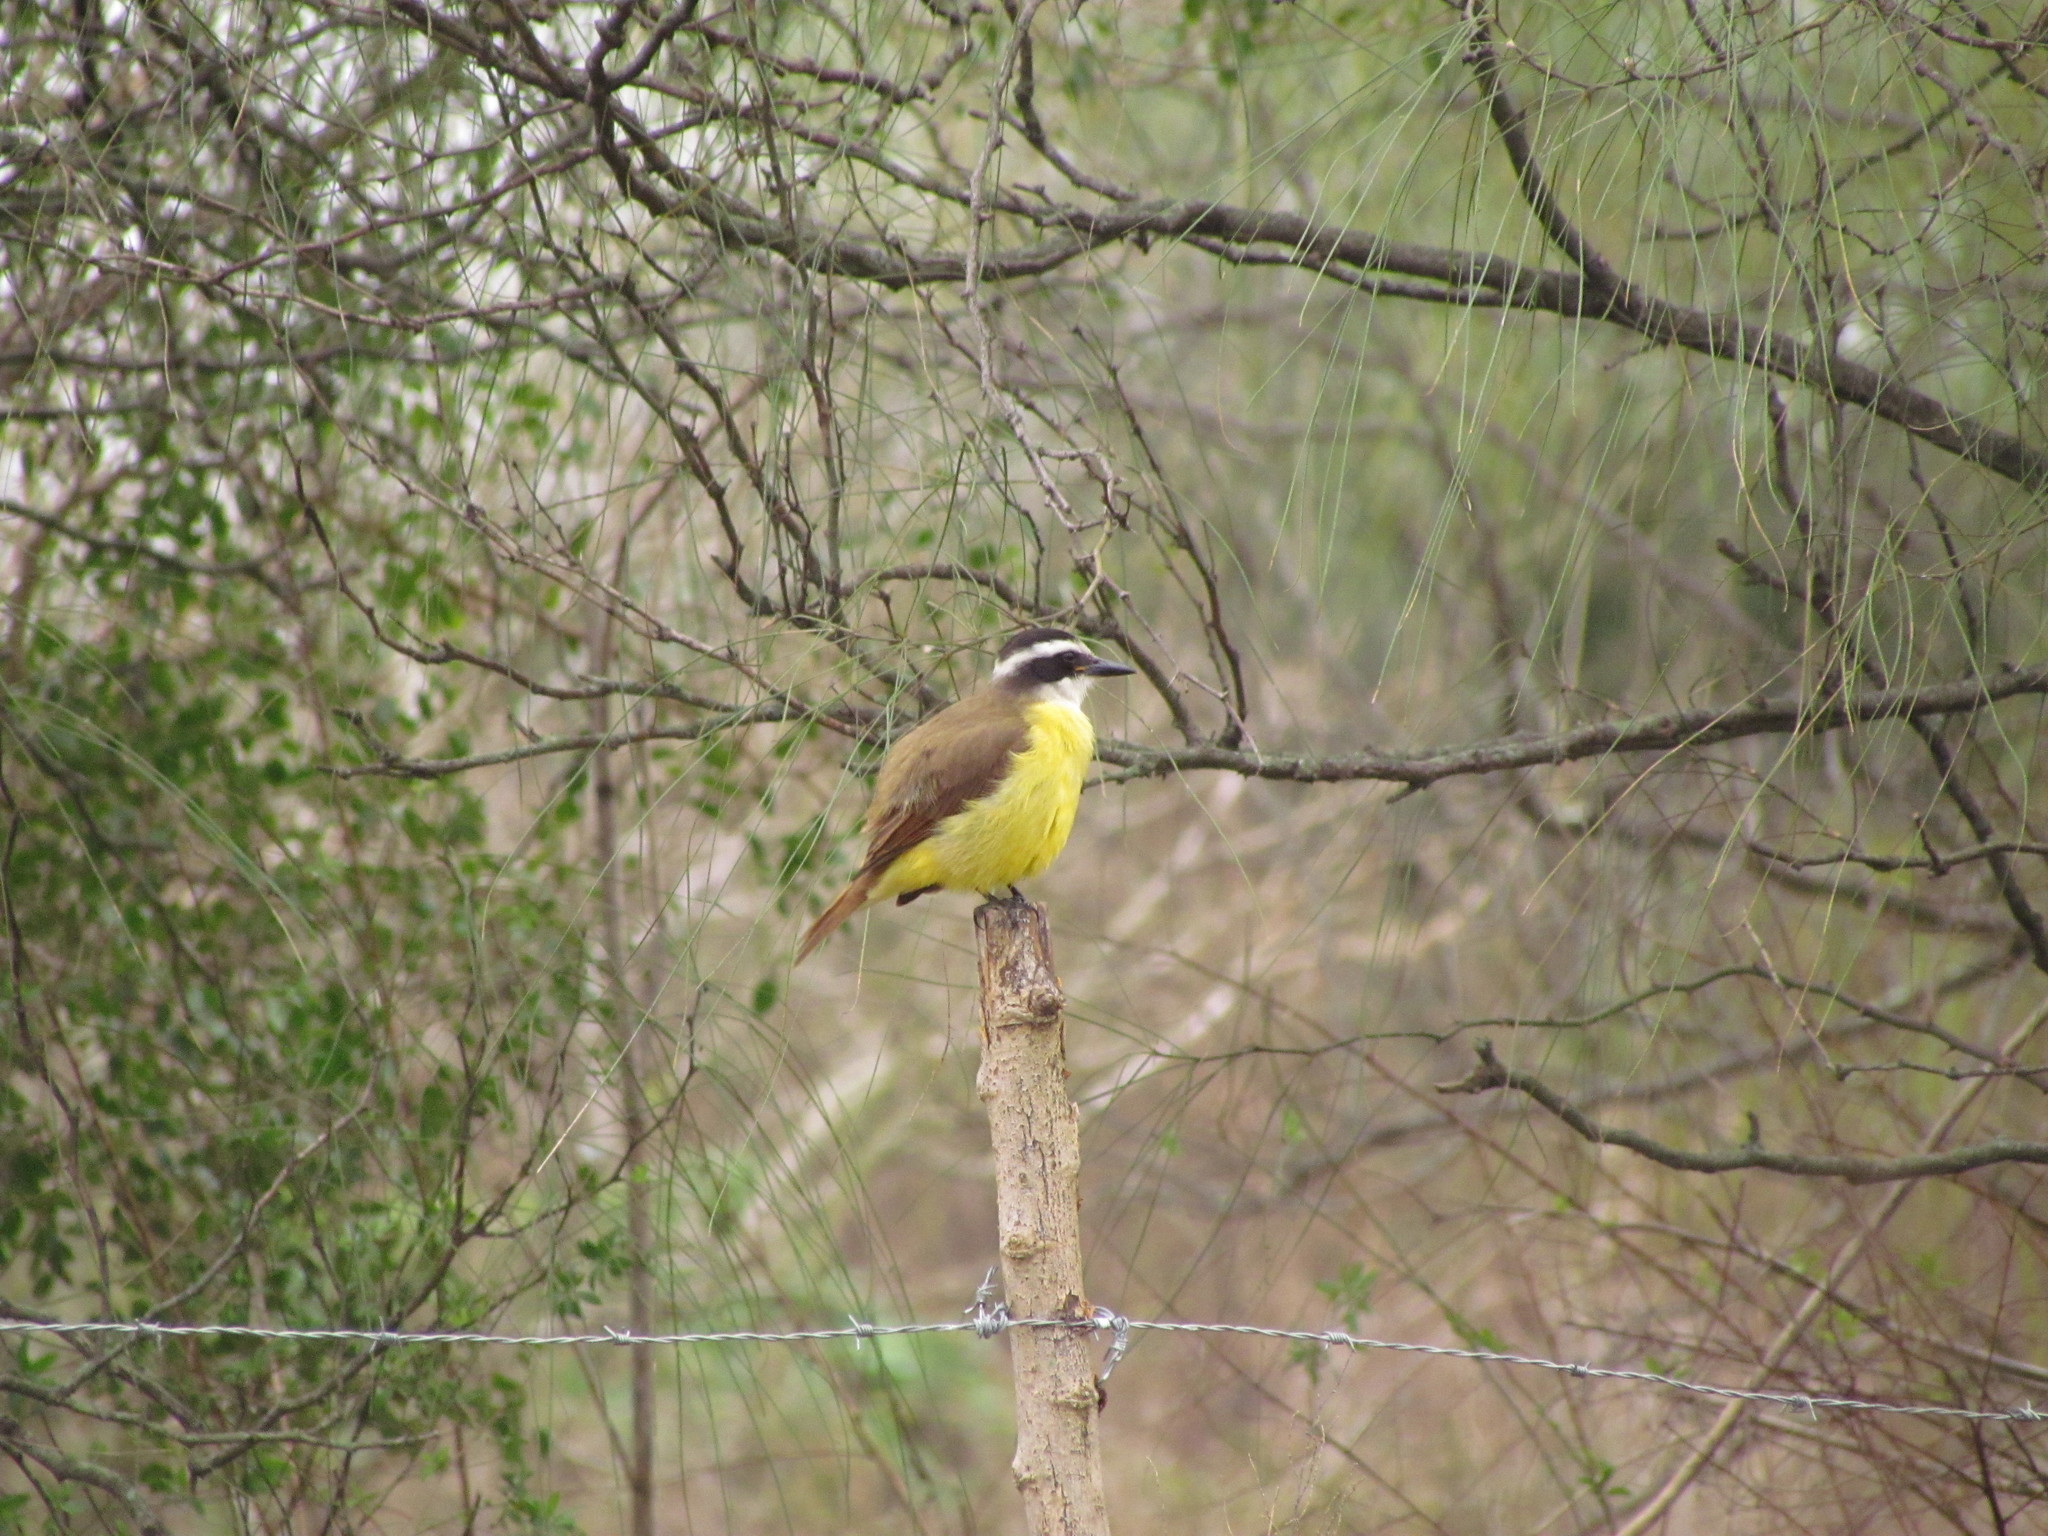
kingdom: Animalia
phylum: Chordata
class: Aves
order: Passeriformes
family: Tyrannidae
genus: Pitangus
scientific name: Pitangus sulphuratus
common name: Great kiskadee
